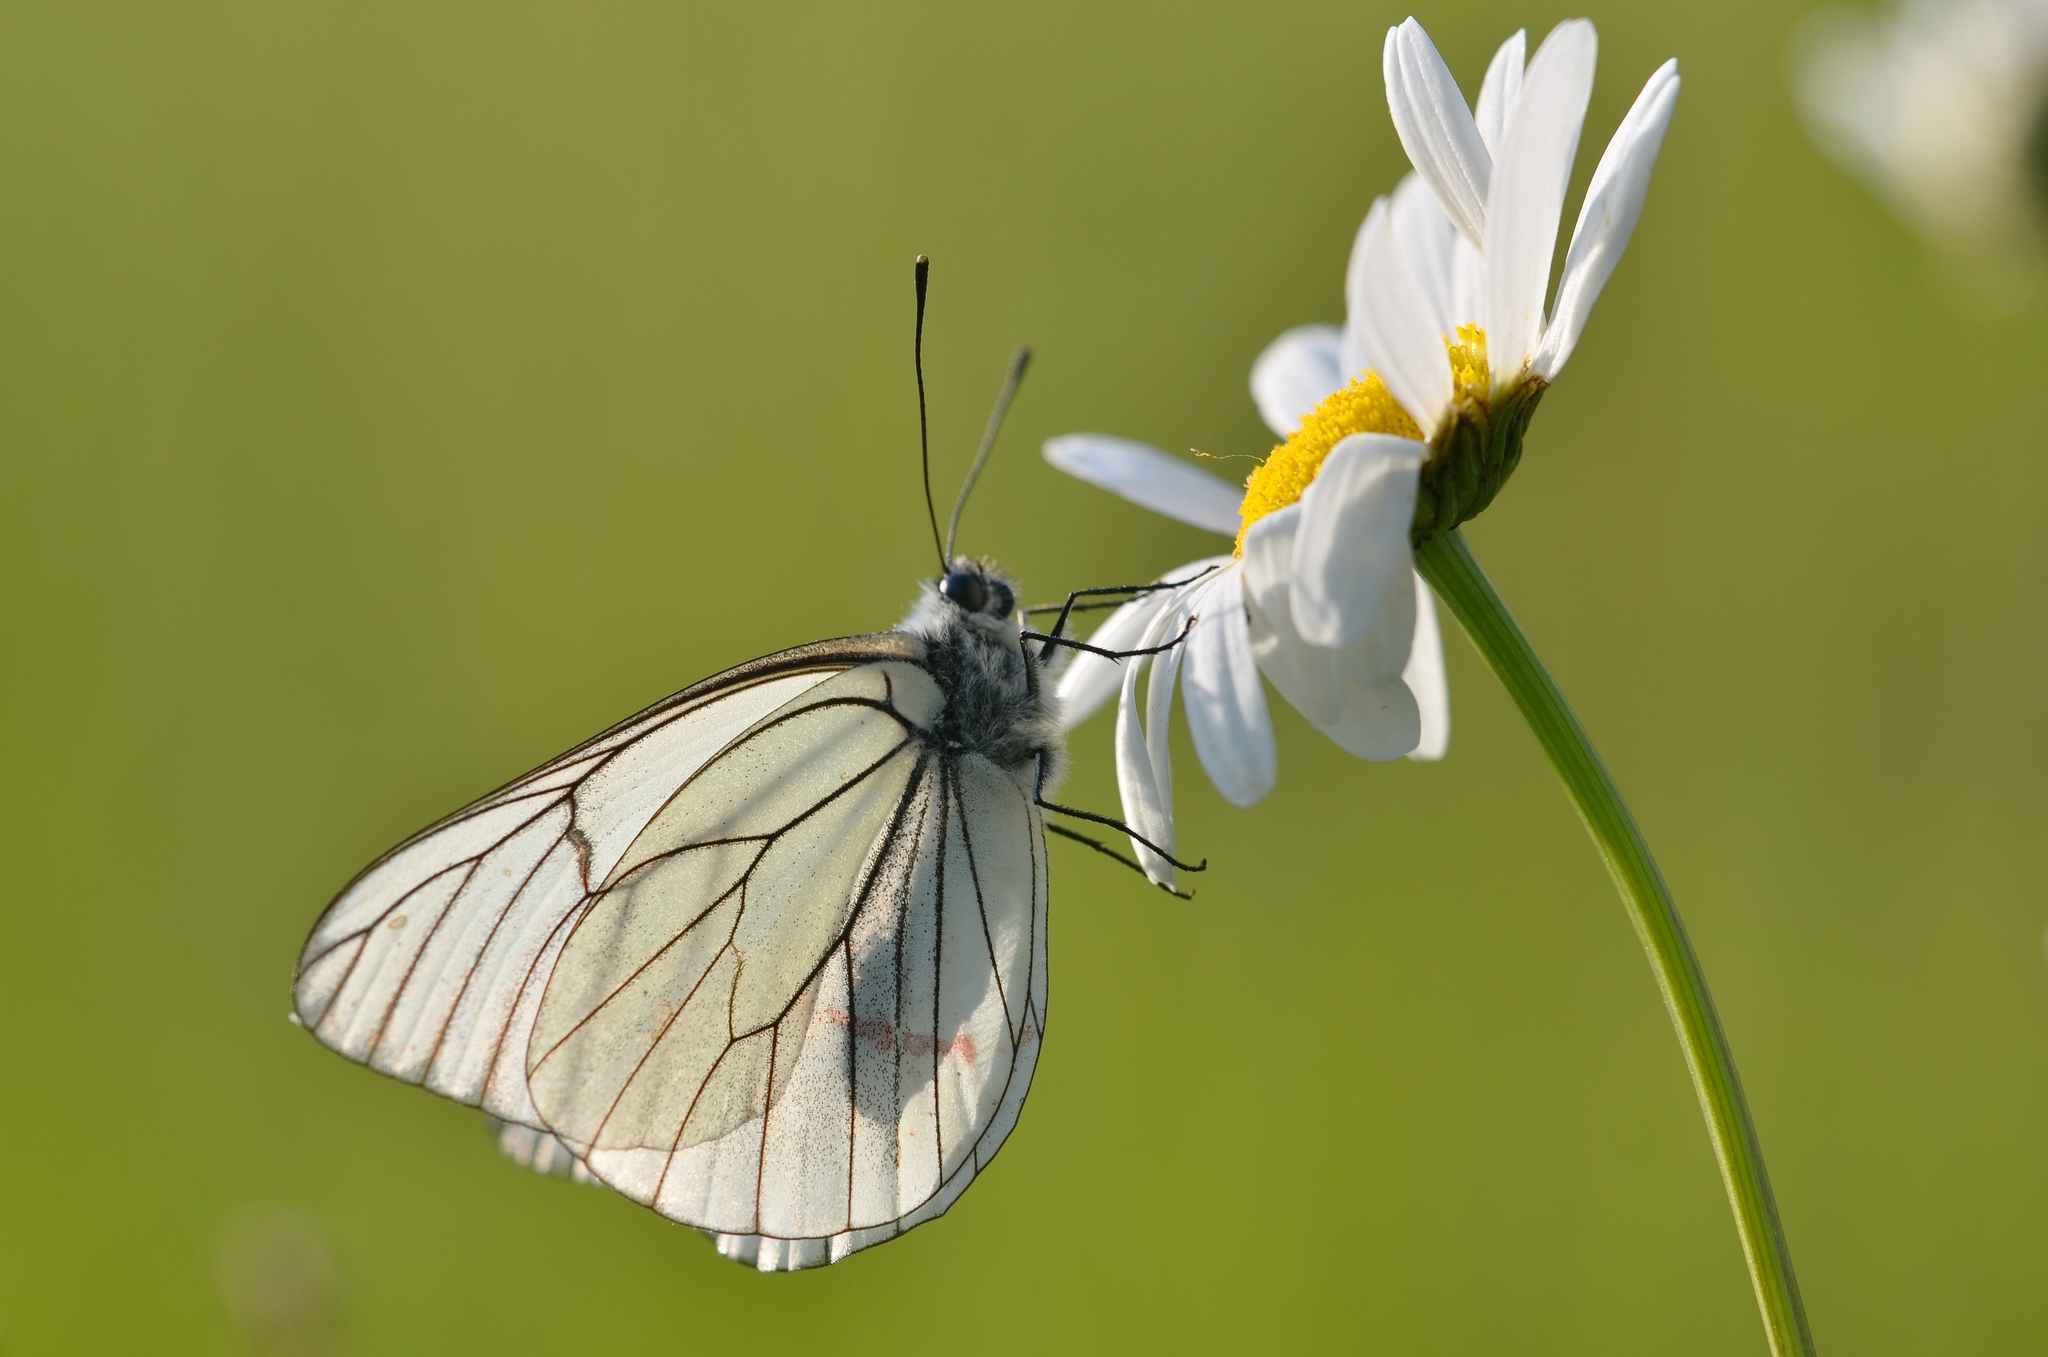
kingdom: Animalia
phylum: Arthropoda
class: Insecta
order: Lepidoptera
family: Pieridae
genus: Aporia
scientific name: Aporia crataegi
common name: Black-veined white
